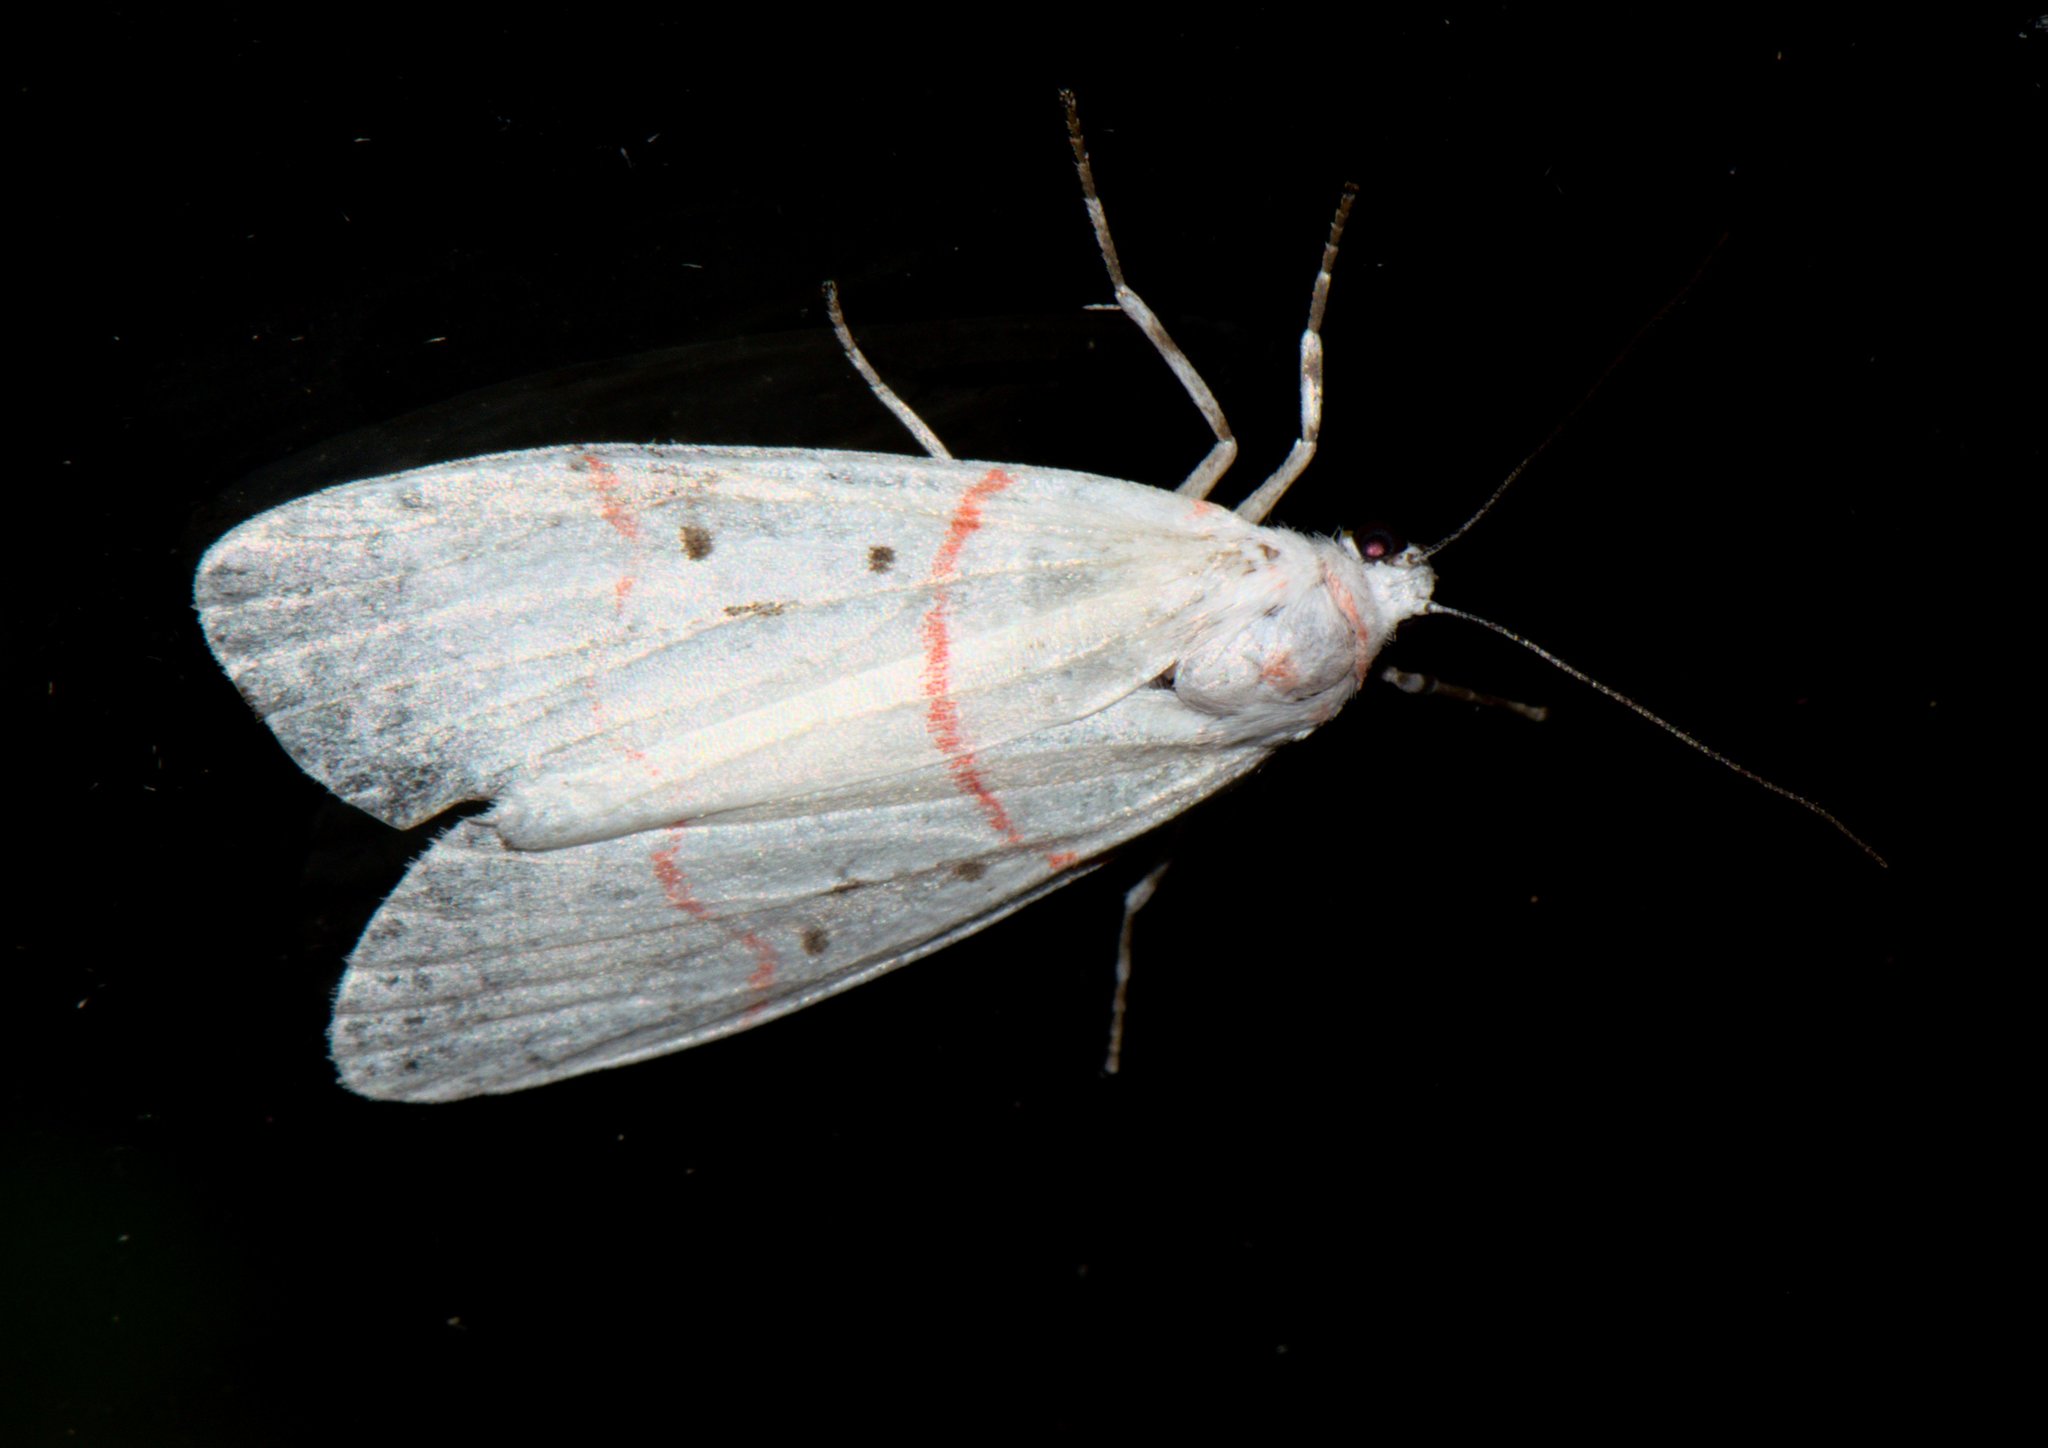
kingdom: Animalia
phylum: Arthropoda
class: Insecta
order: Lepidoptera
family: Erebidae
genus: Cyana
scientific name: Cyana adita
